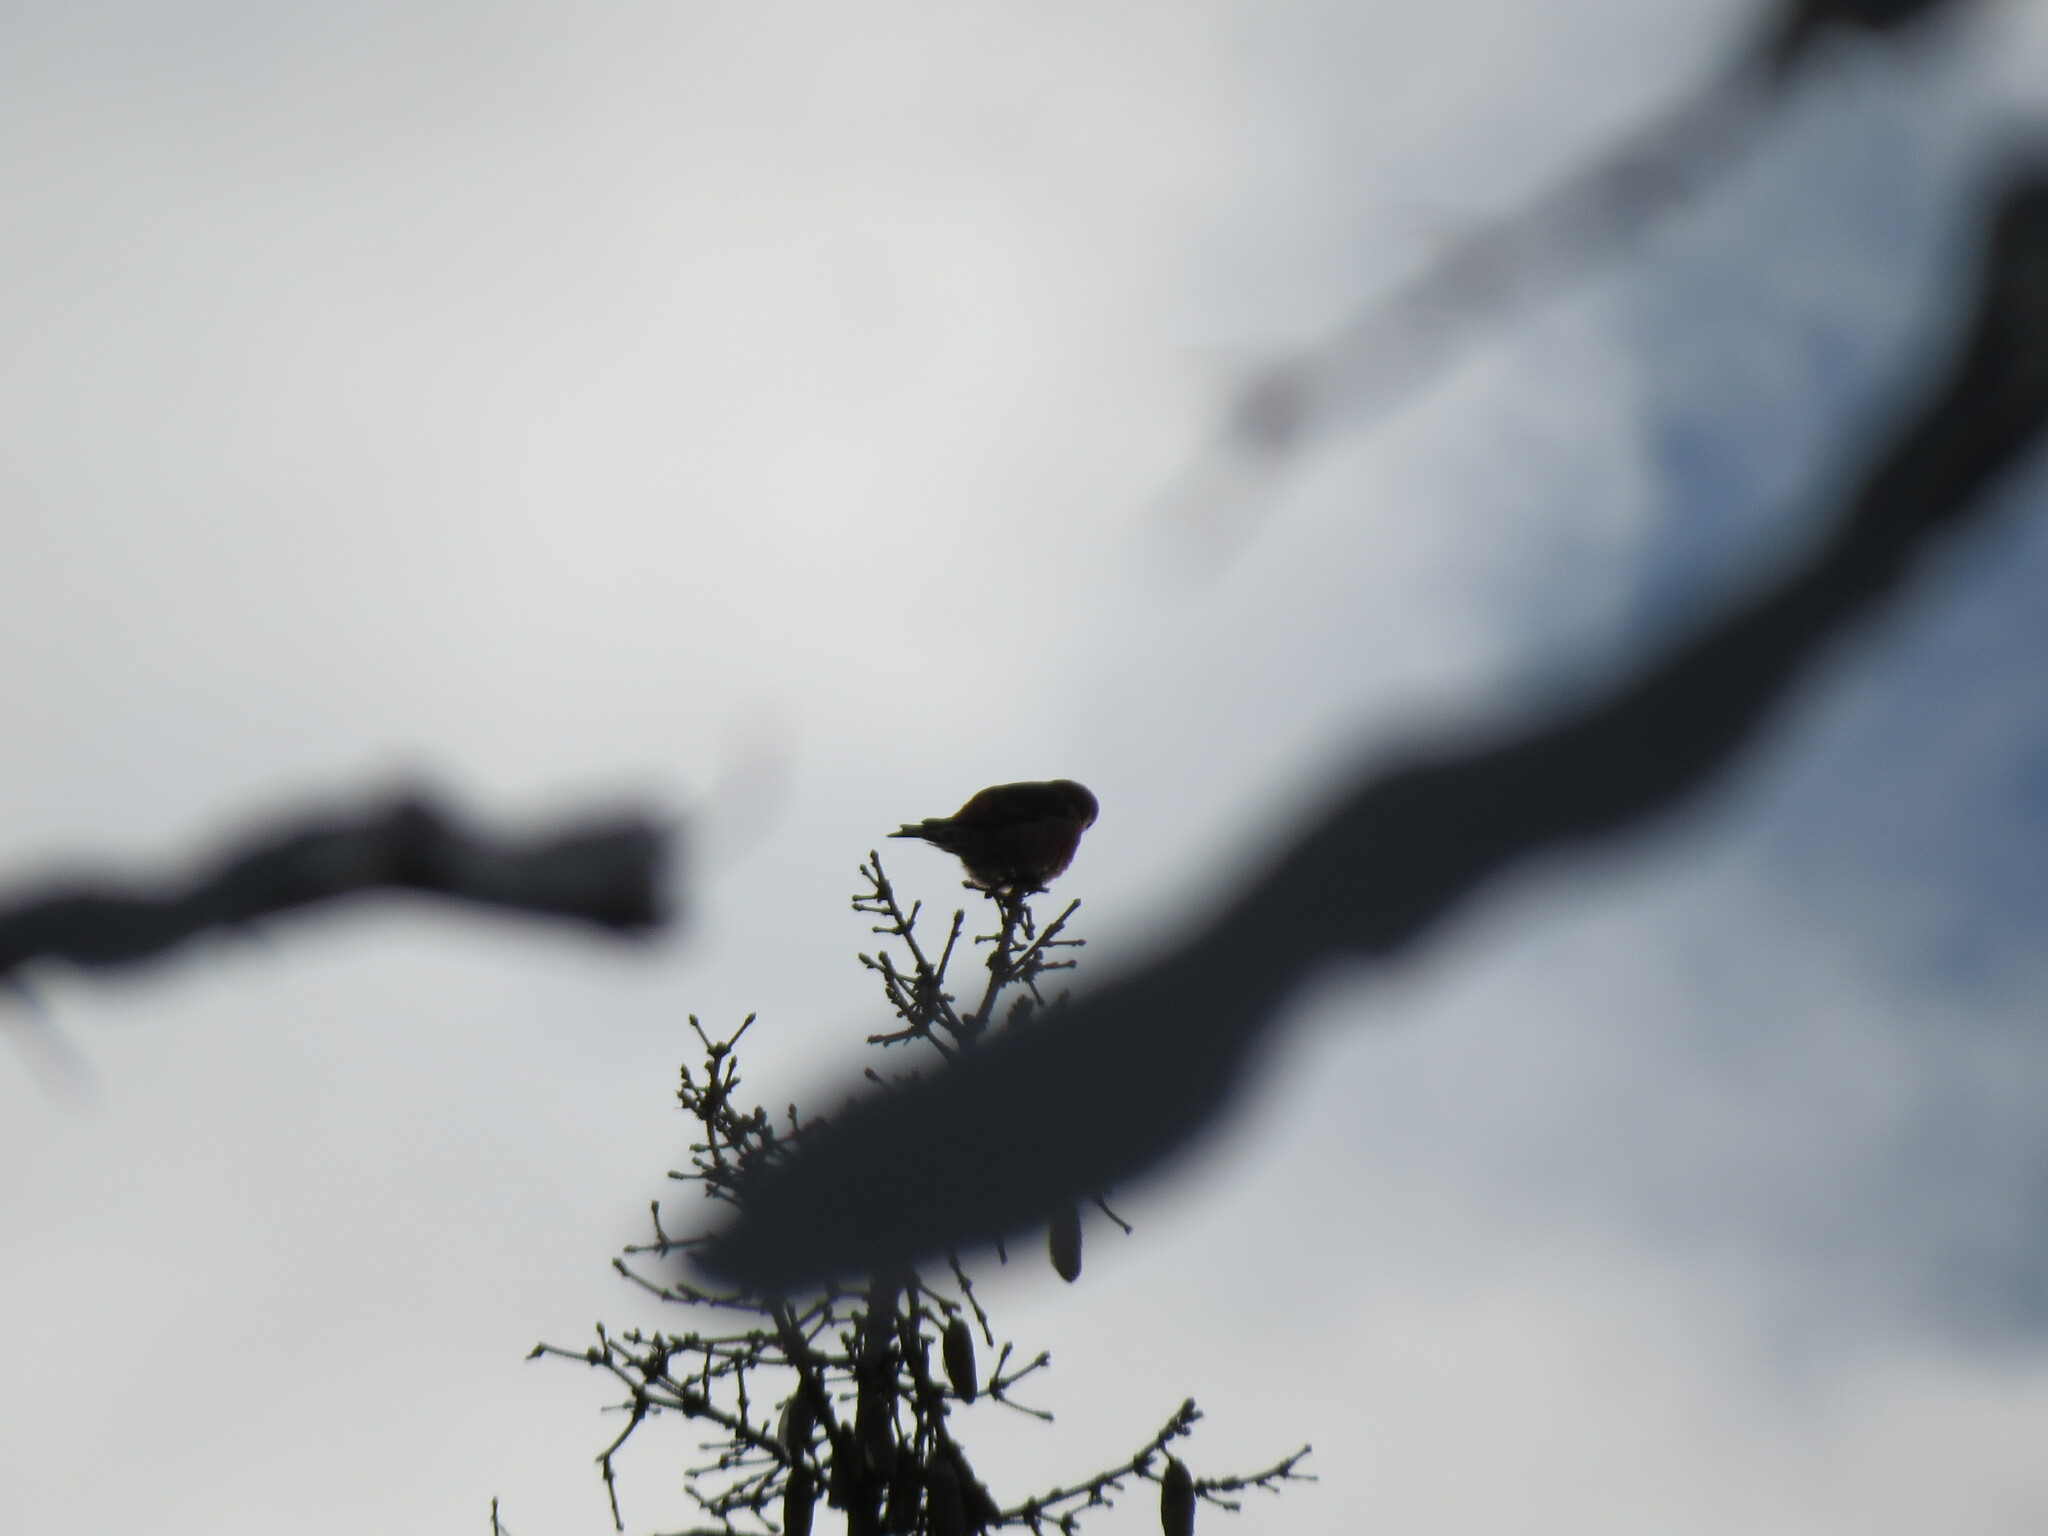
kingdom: Animalia
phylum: Chordata
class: Aves
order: Passeriformes
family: Fringillidae
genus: Loxia
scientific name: Loxia curvirostra
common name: Red crossbill
